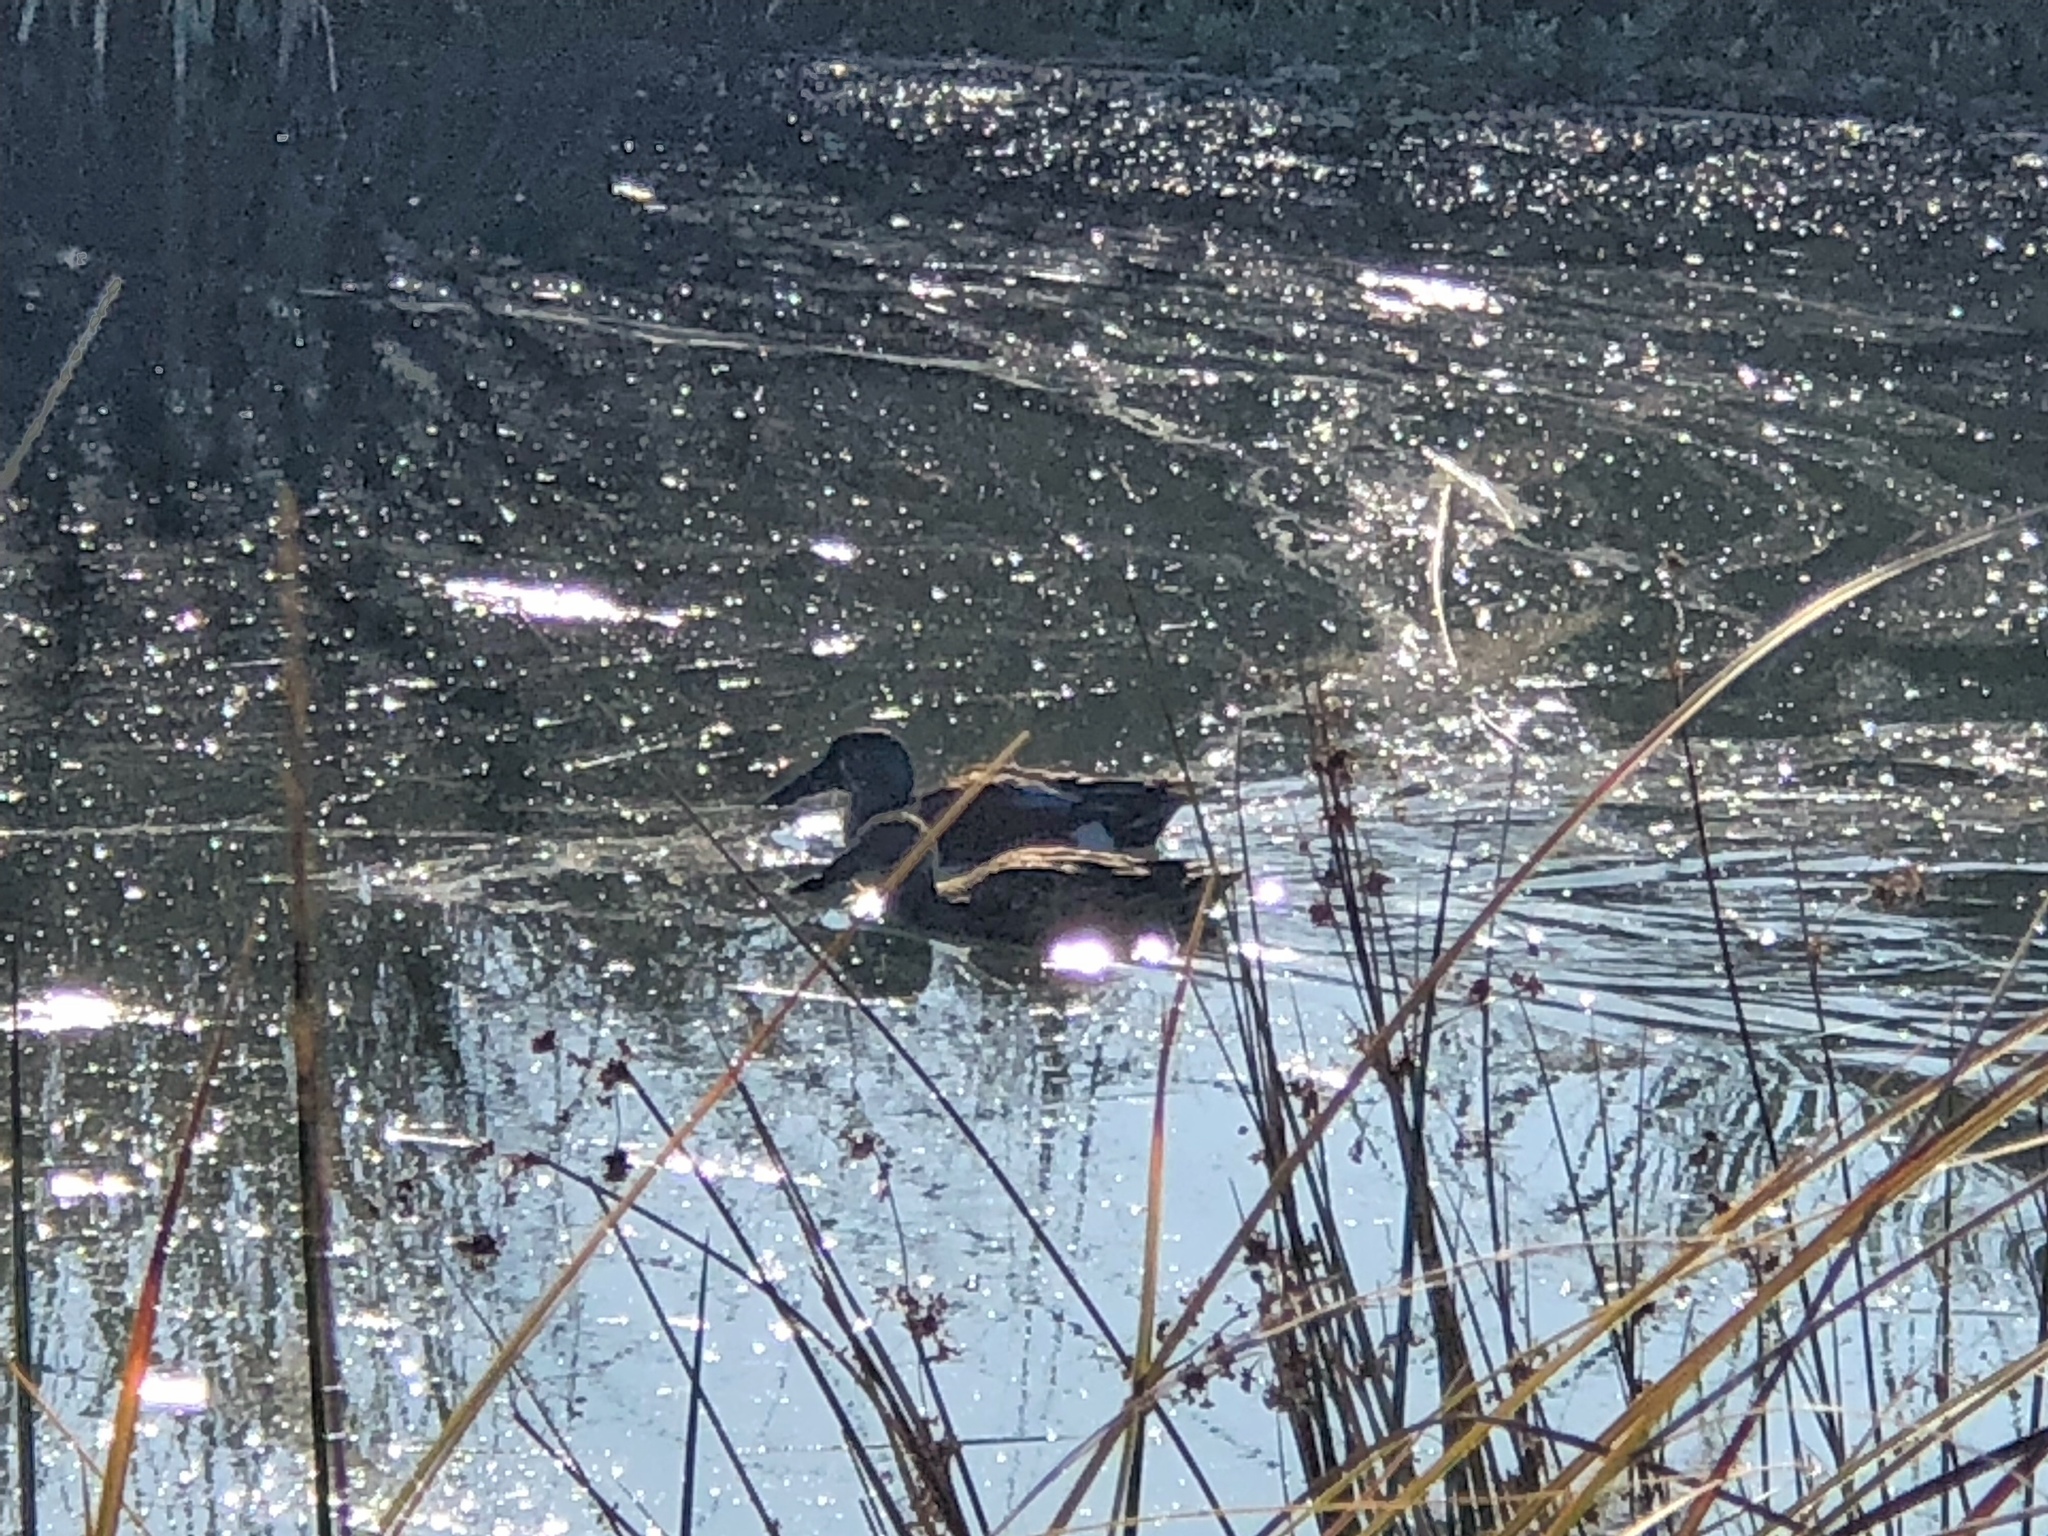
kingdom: Animalia
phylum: Chordata
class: Aves
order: Anseriformes
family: Anatidae
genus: Spatula
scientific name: Spatula rhynchotis
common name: Australian shoveler
